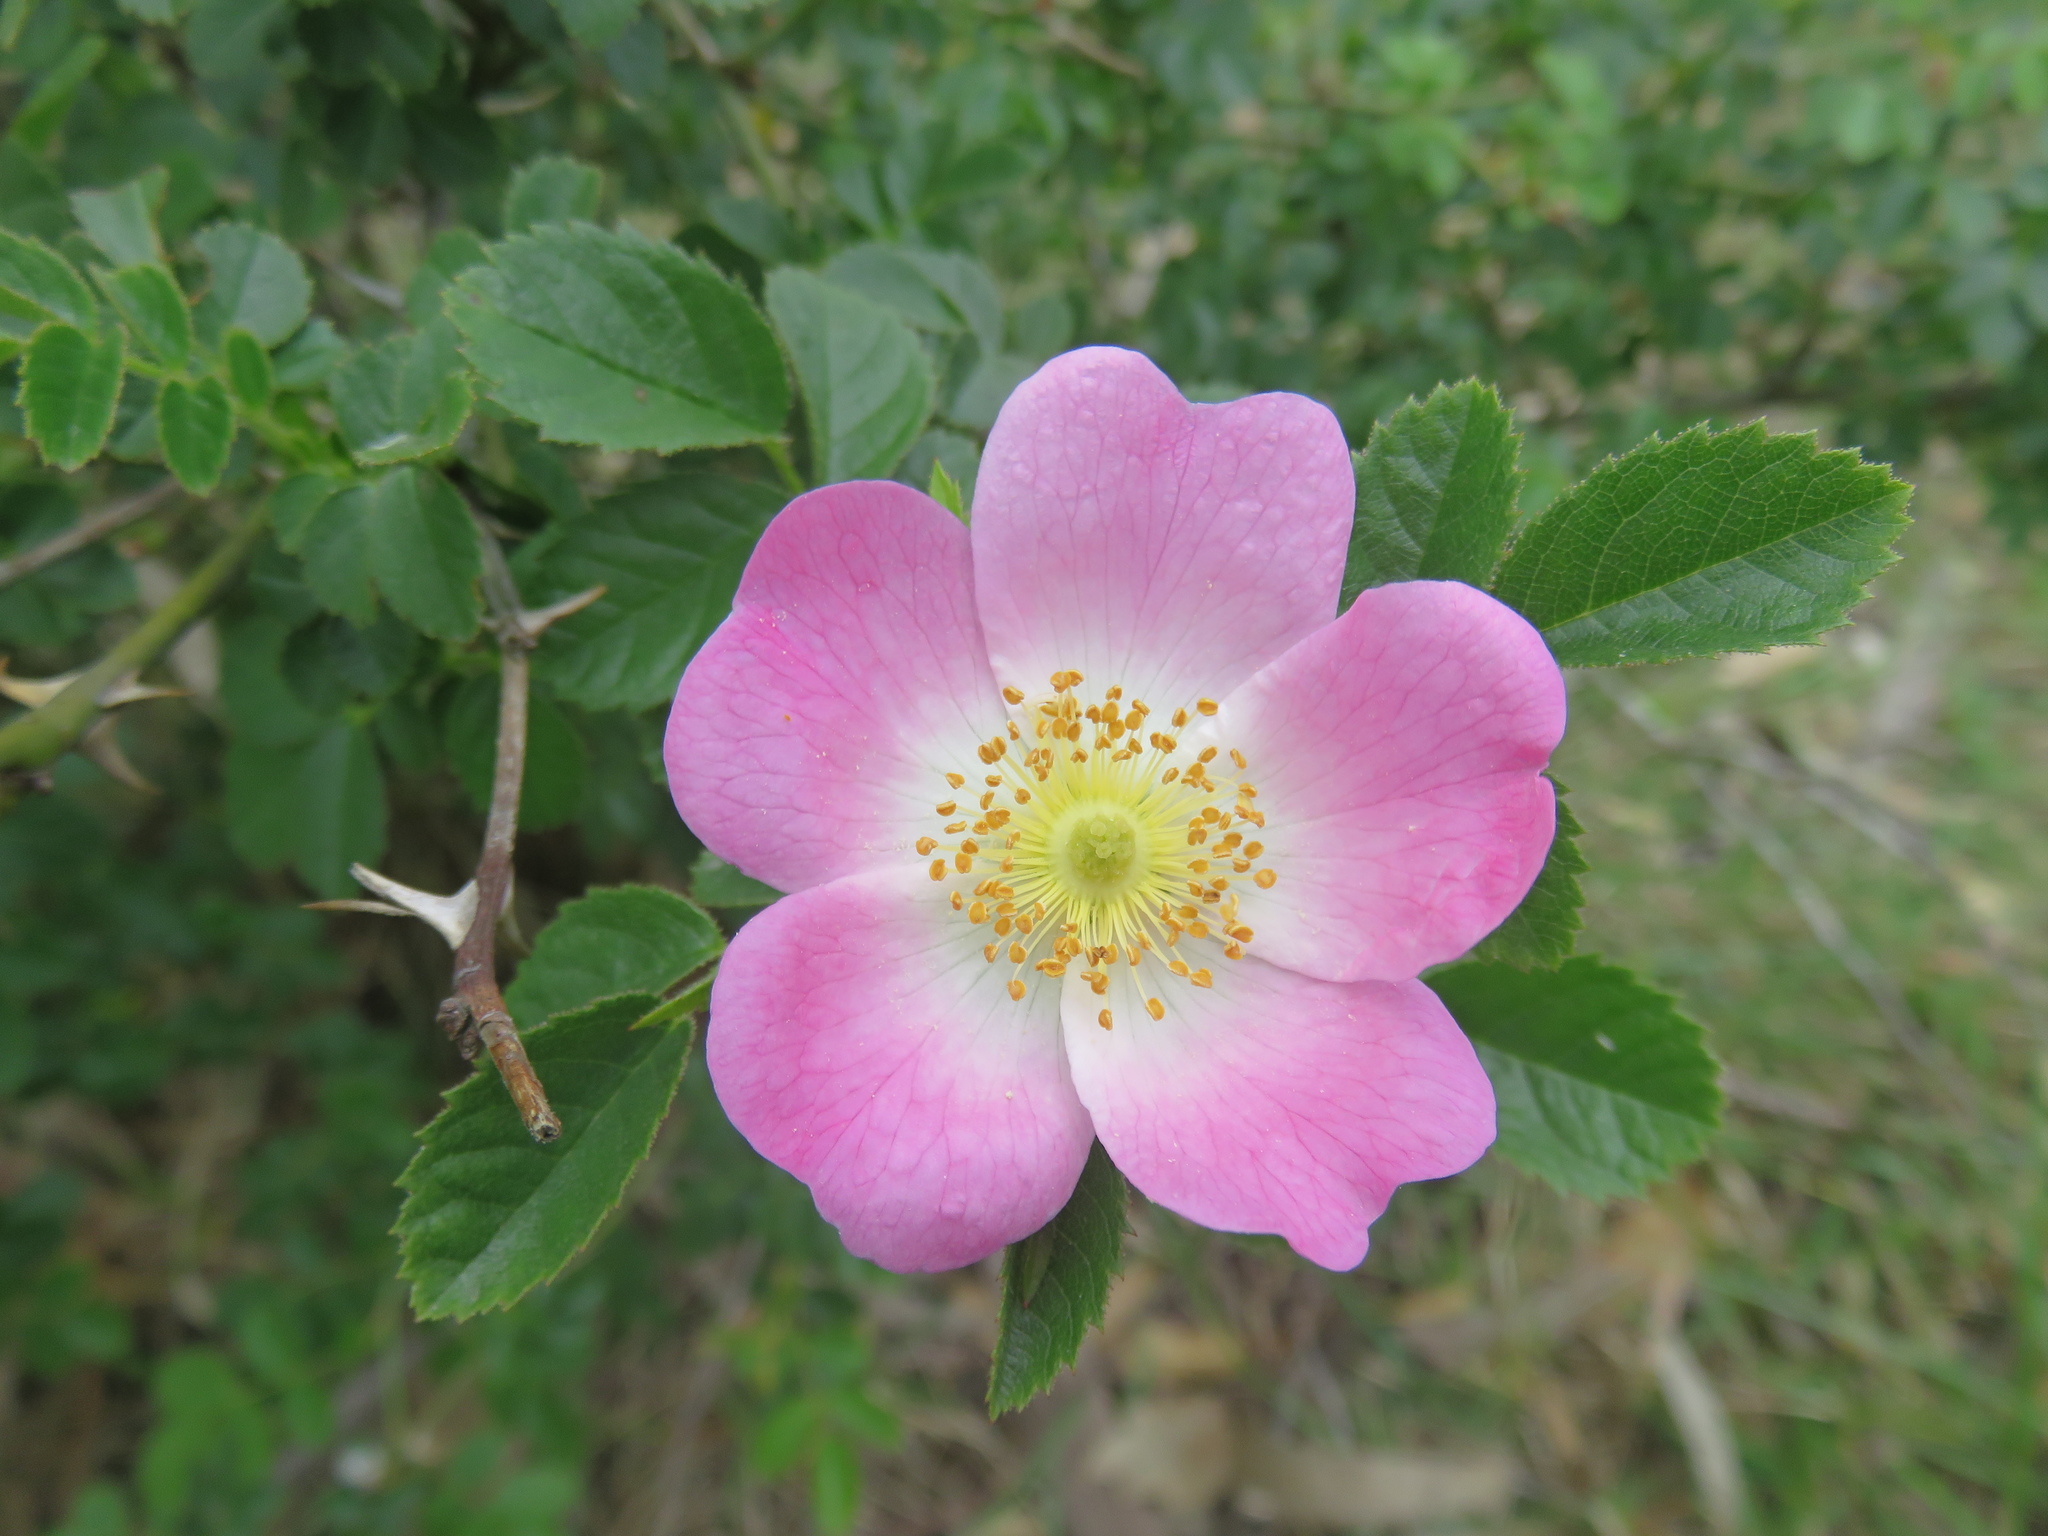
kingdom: Plantae
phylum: Tracheophyta
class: Magnoliopsida
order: Rosales
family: Rosaceae
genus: Rosa
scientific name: Rosa rubiginosa
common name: Sweet-briar
